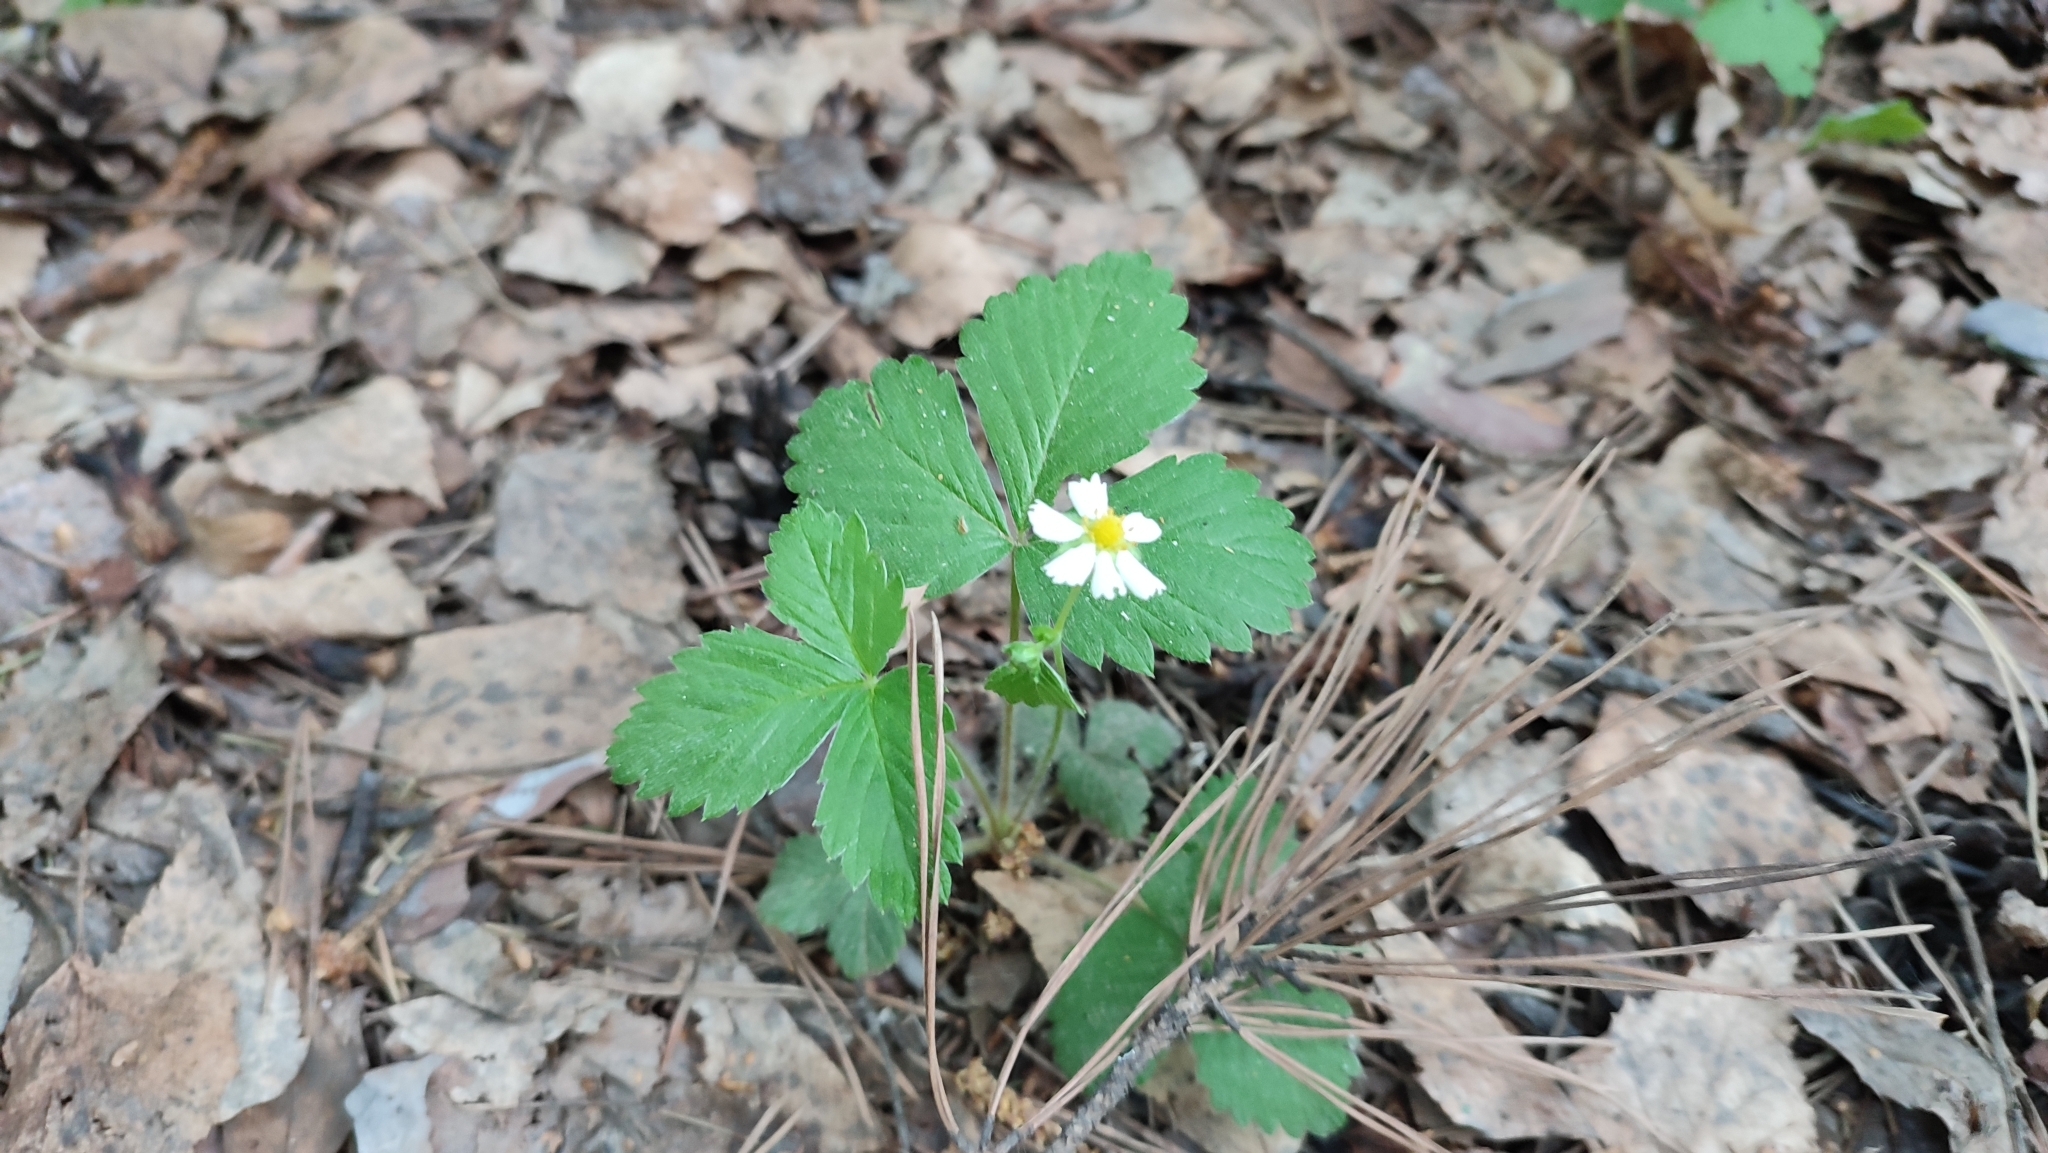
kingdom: Plantae
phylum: Tracheophyta
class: Magnoliopsida
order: Rosales
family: Rosaceae
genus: Fragaria
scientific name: Fragaria vesca
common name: Wild strawberry
